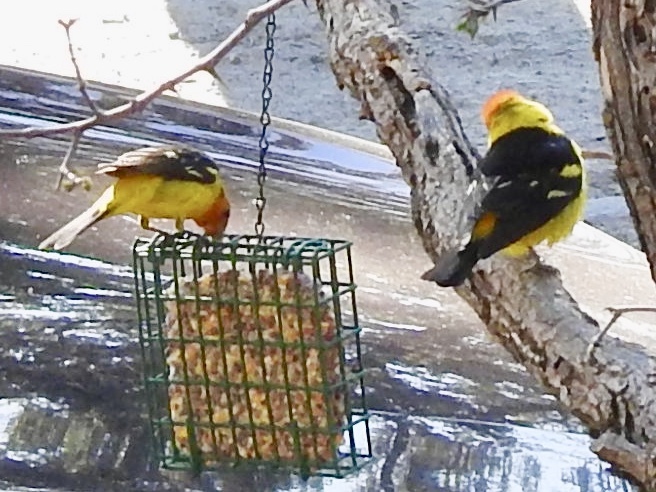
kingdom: Animalia
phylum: Chordata
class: Aves
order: Passeriformes
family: Cardinalidae
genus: Piranga
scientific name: Piranga ludoviciana
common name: Western tanager
